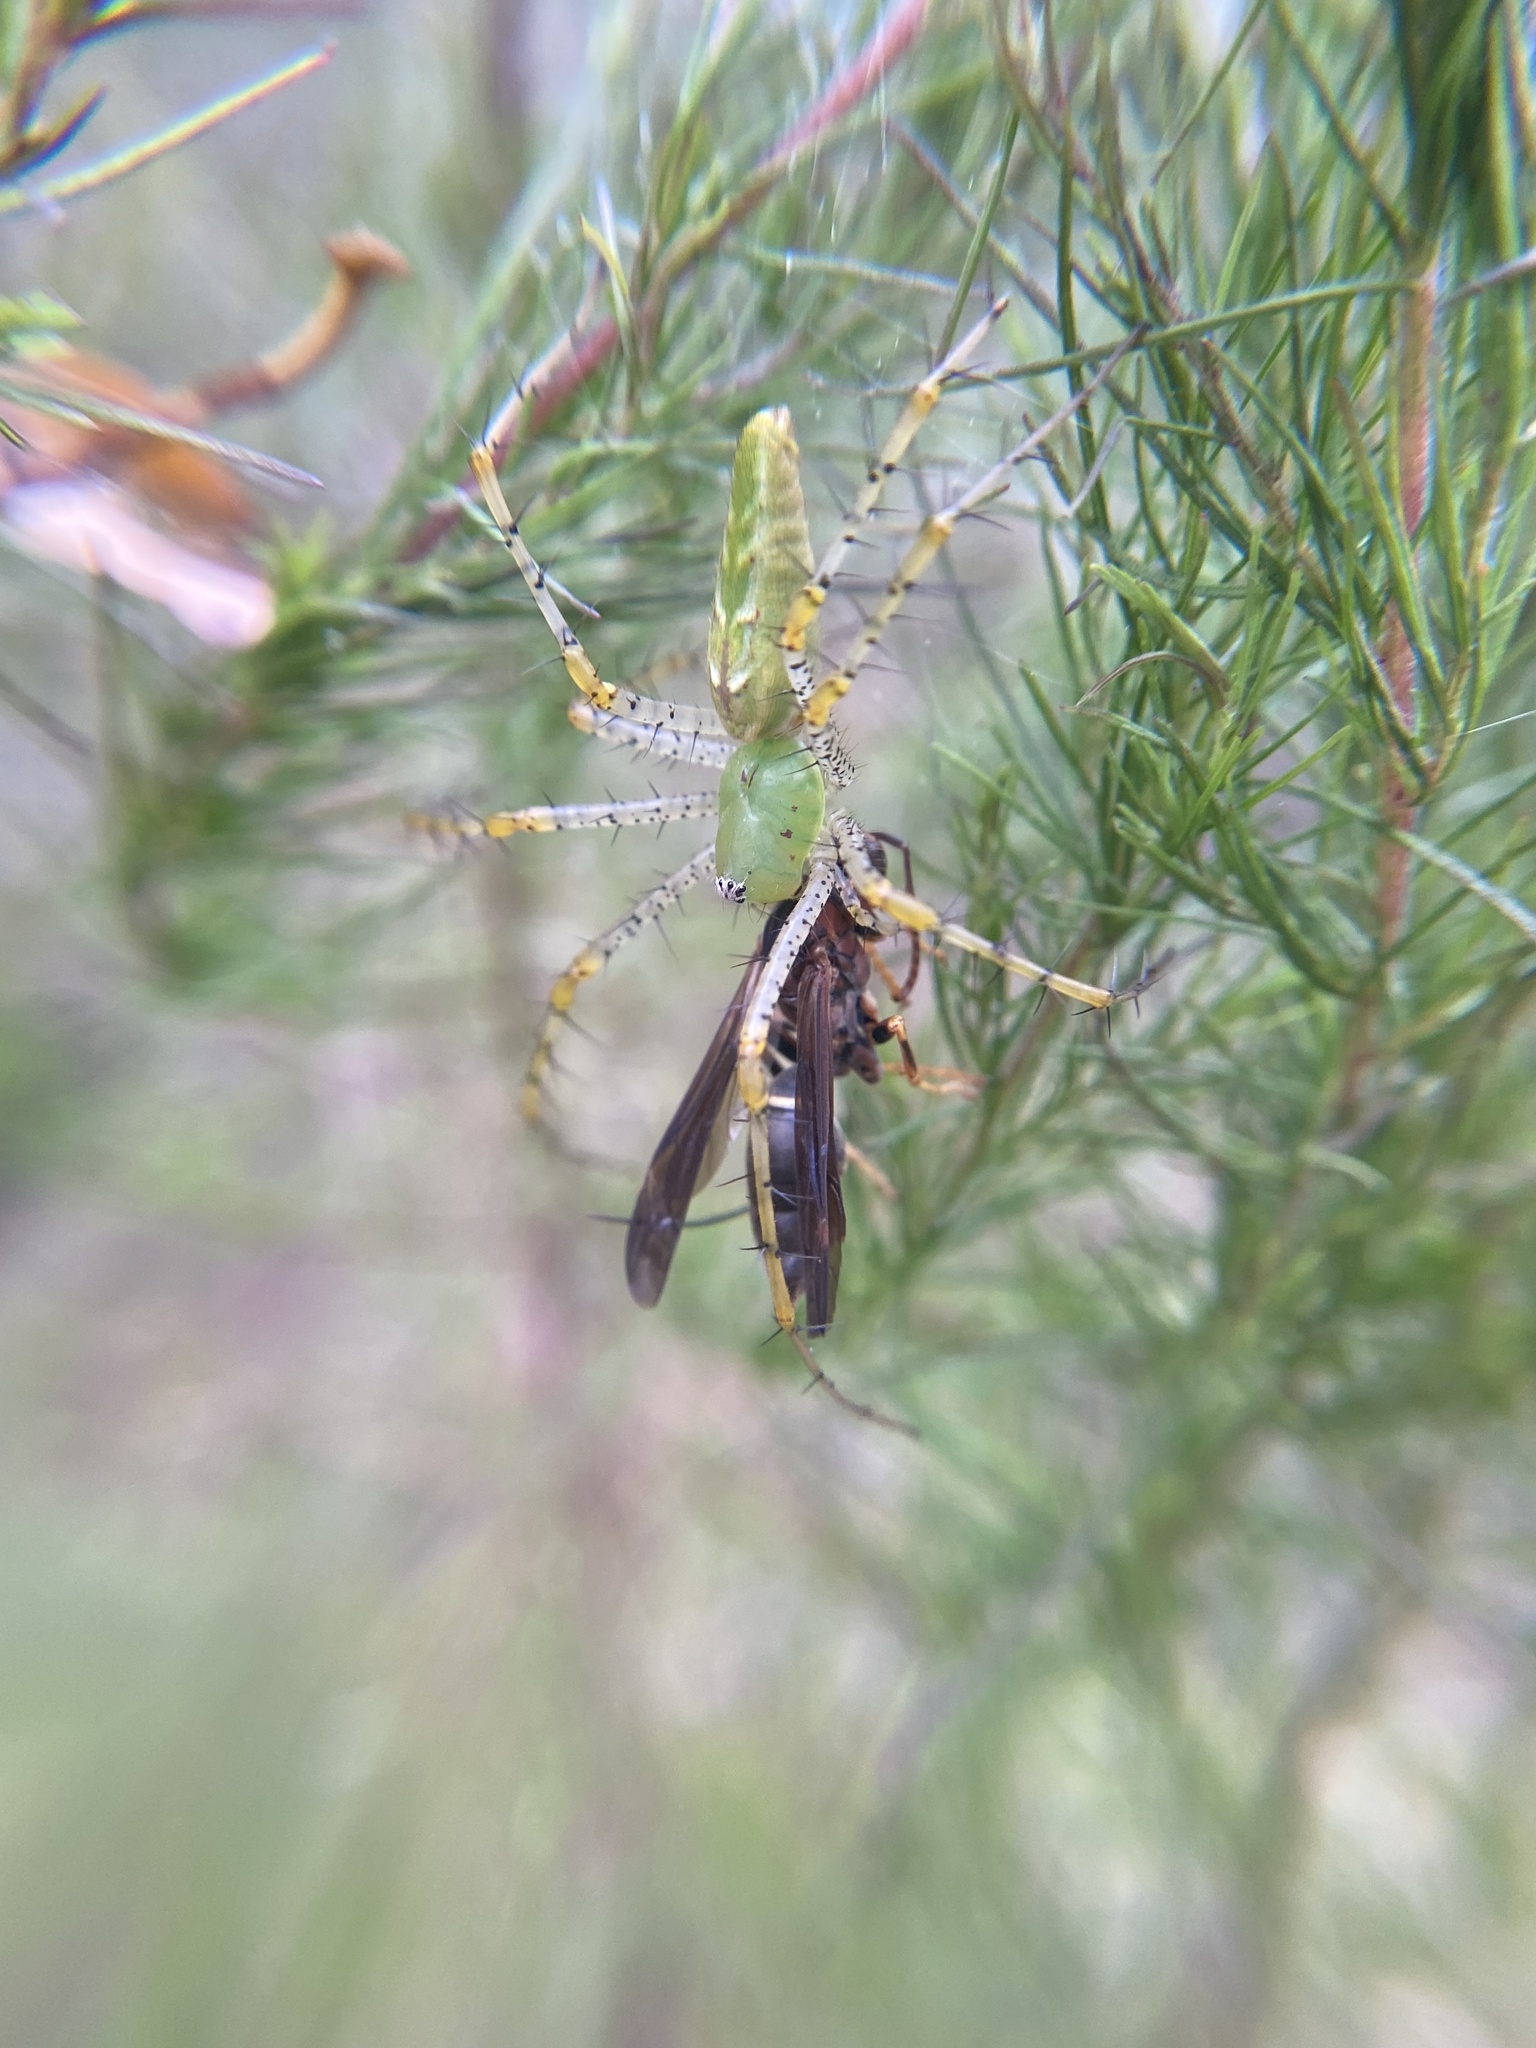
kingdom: Animalia
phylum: Arthropoda
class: Arachnida
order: Araneae
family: Oxyopidae
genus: Peucetia
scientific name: Peucetia viridans
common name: Lynx spiders
